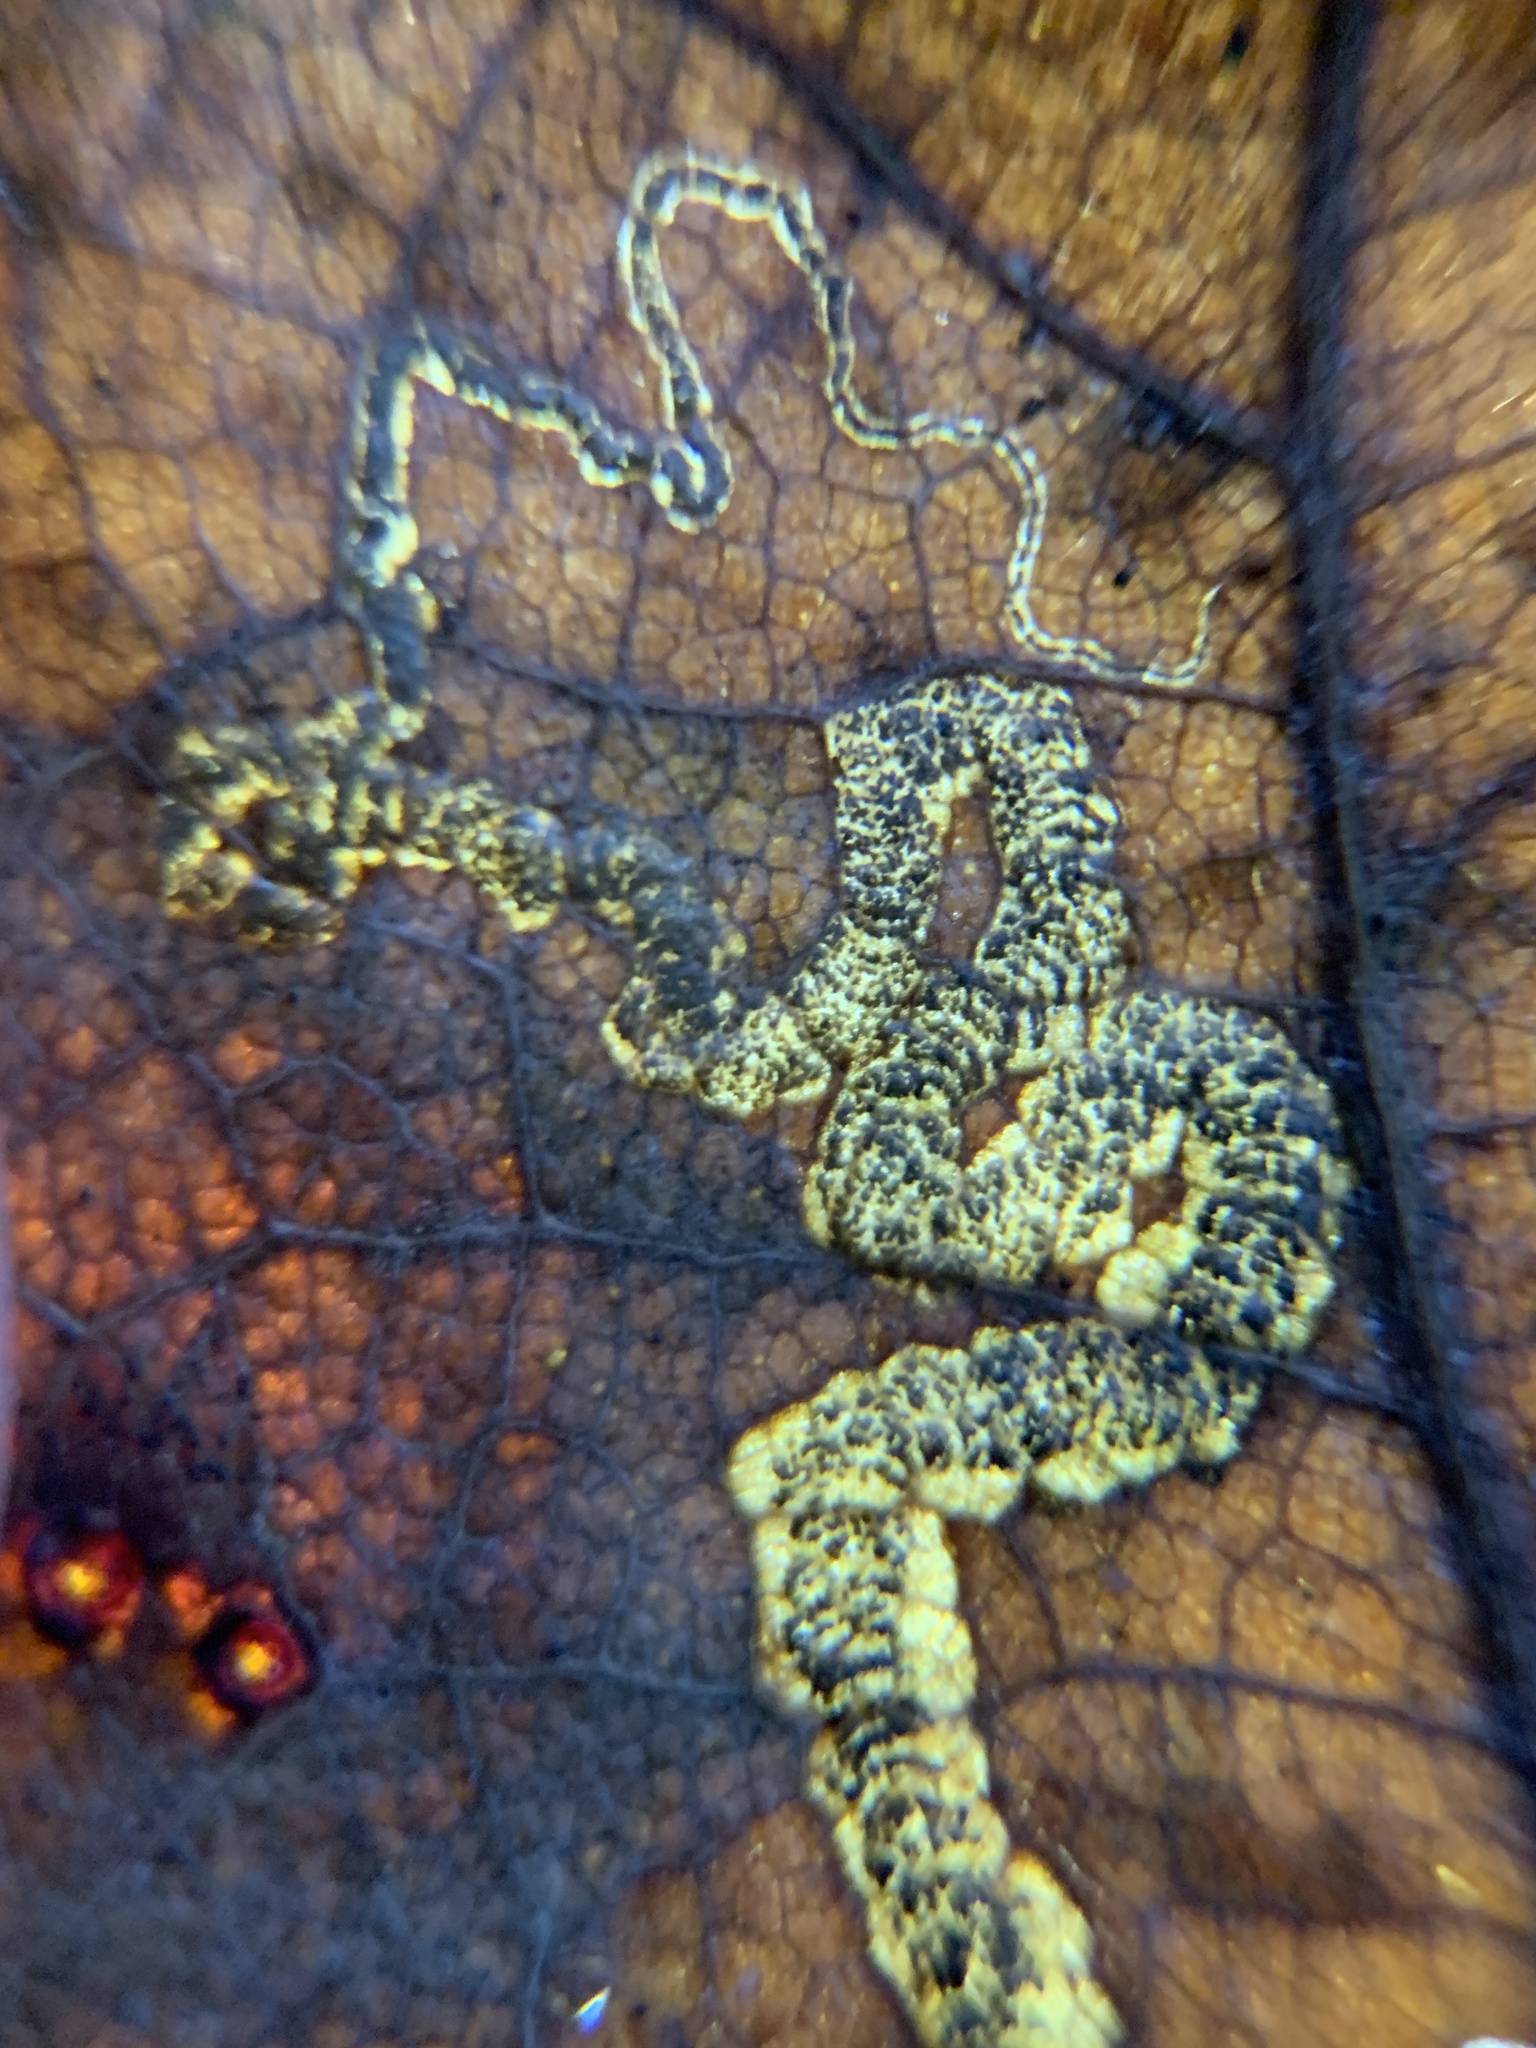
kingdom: Animalia
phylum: Arthropoda
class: Insecta
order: Lepidoptera
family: Nepticulidae
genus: Stigmella
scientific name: Stigmella macrocarpae
